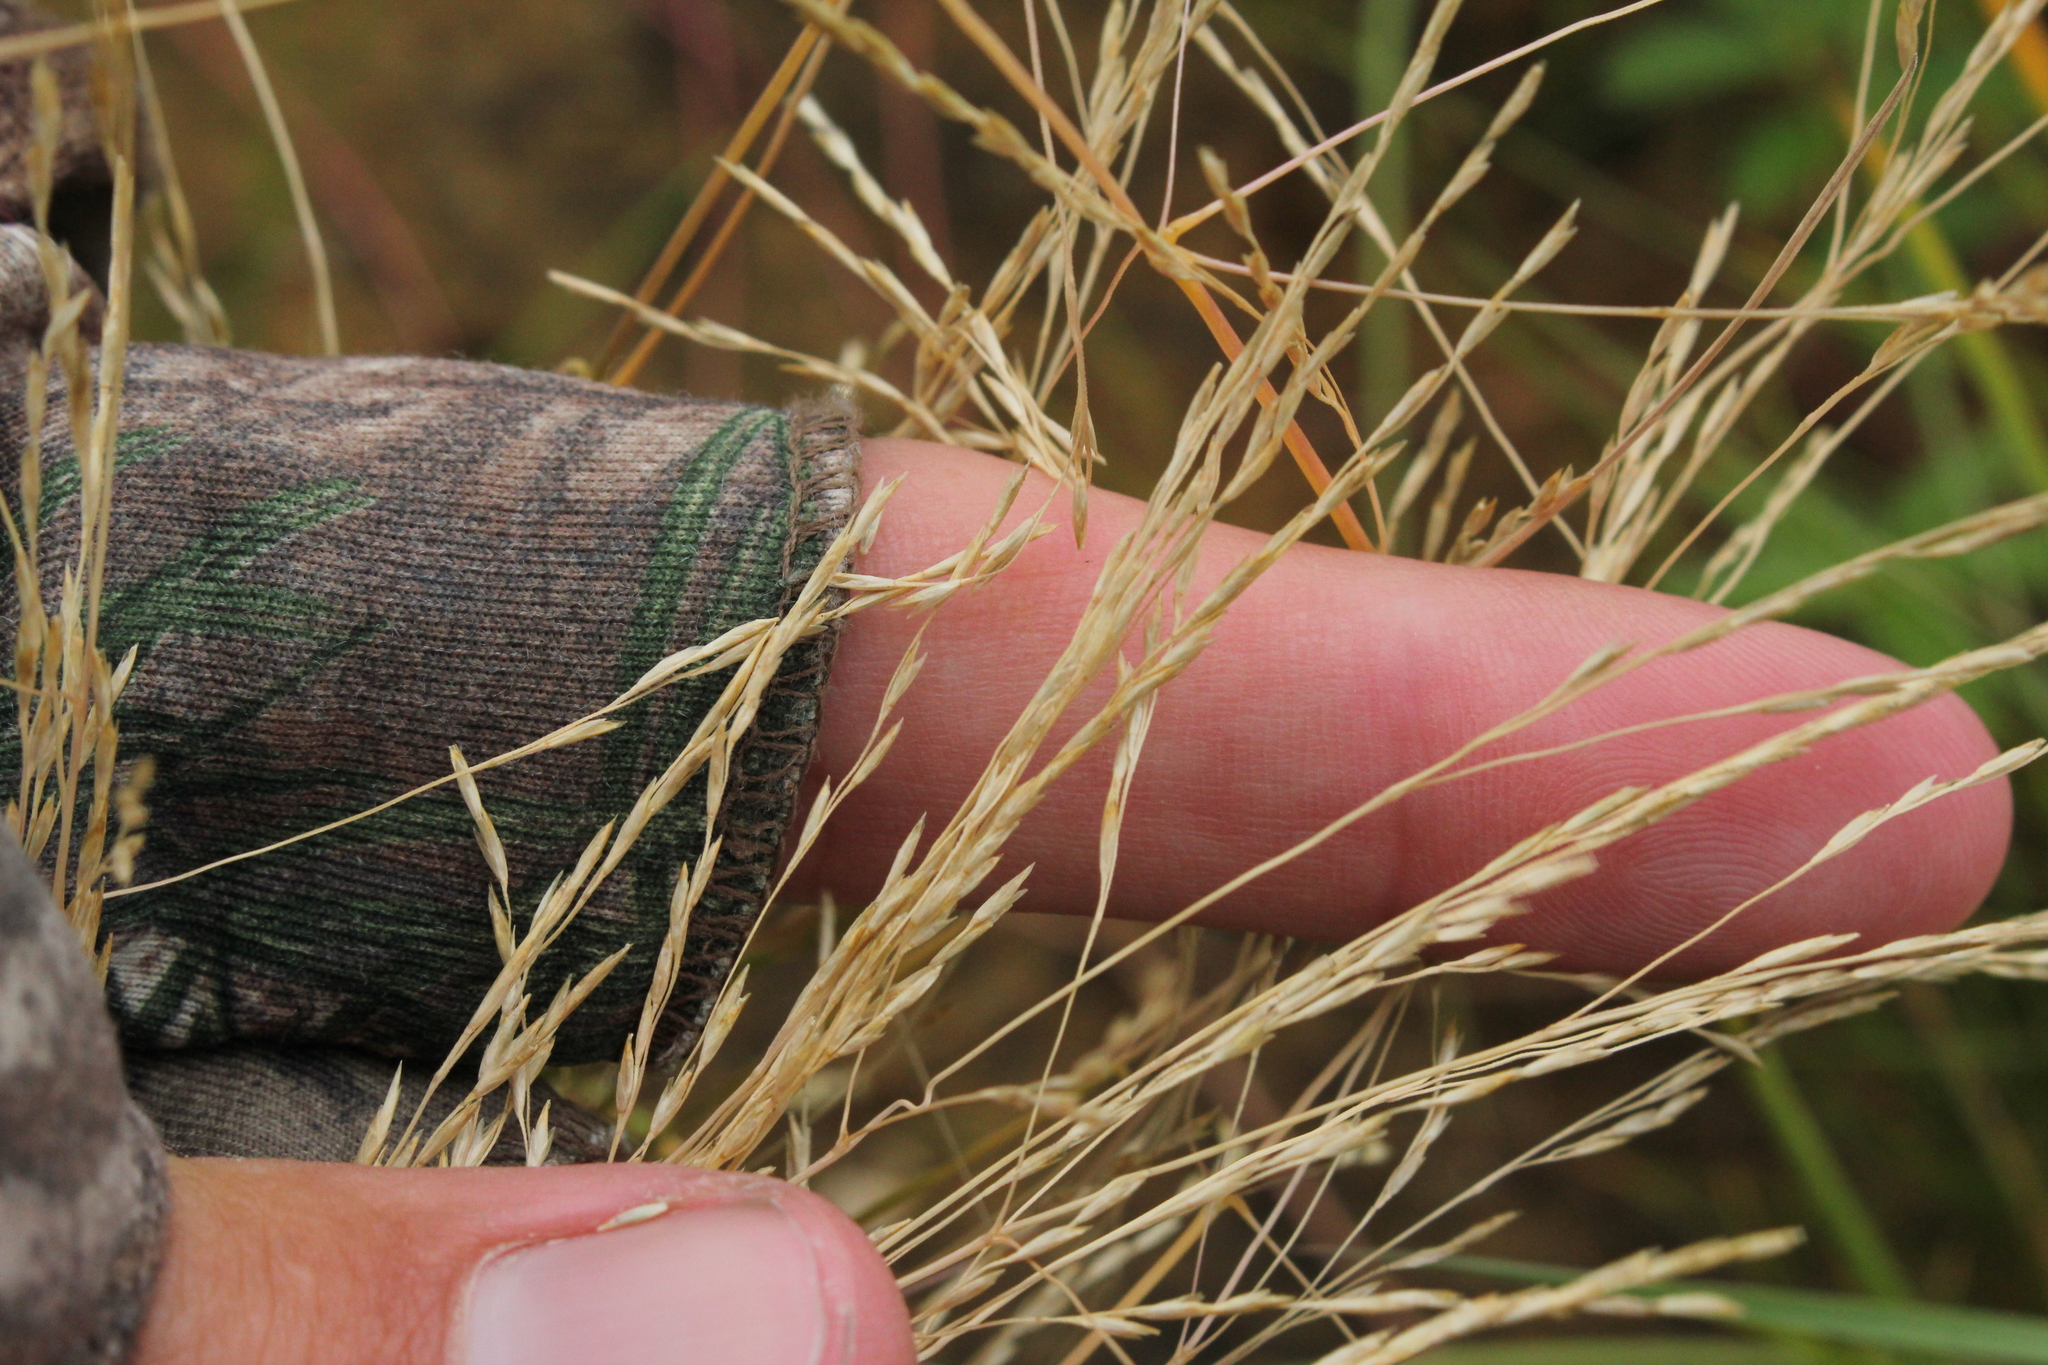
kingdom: Plantae
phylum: Tracheophyta
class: Liliopsida
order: Poales
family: Poaceae
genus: Deschampsia
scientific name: Deschampsia cespitosa
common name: Tufted hair-grass
